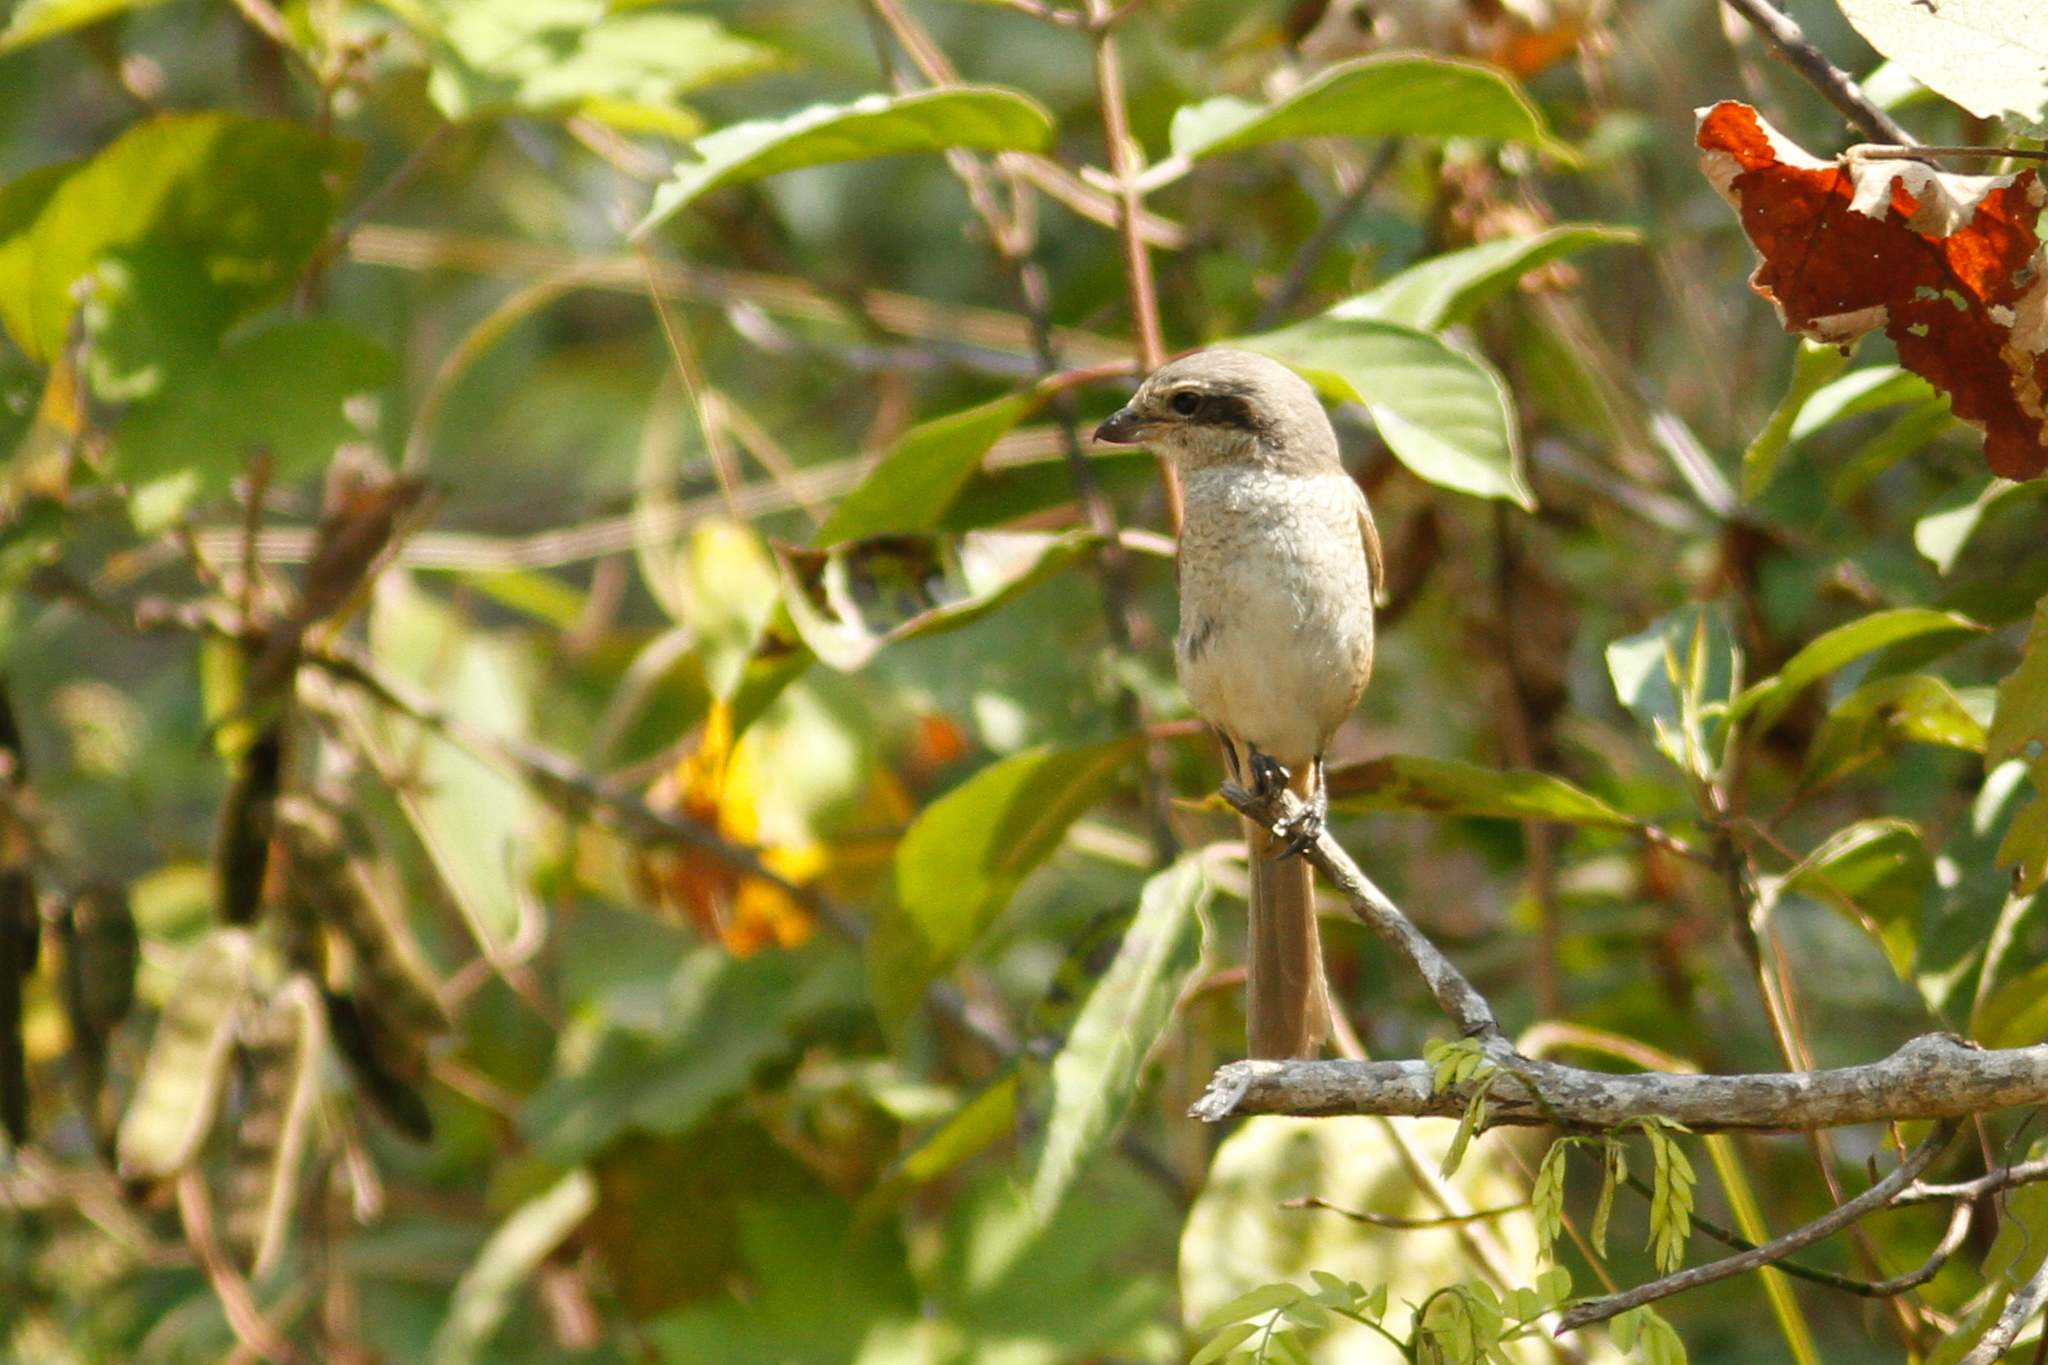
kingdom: Animalia
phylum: Chordata
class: Aves
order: Passeriformes
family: Laniidae
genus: Lanius
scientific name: Lanius cristatus
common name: Brown shrike
